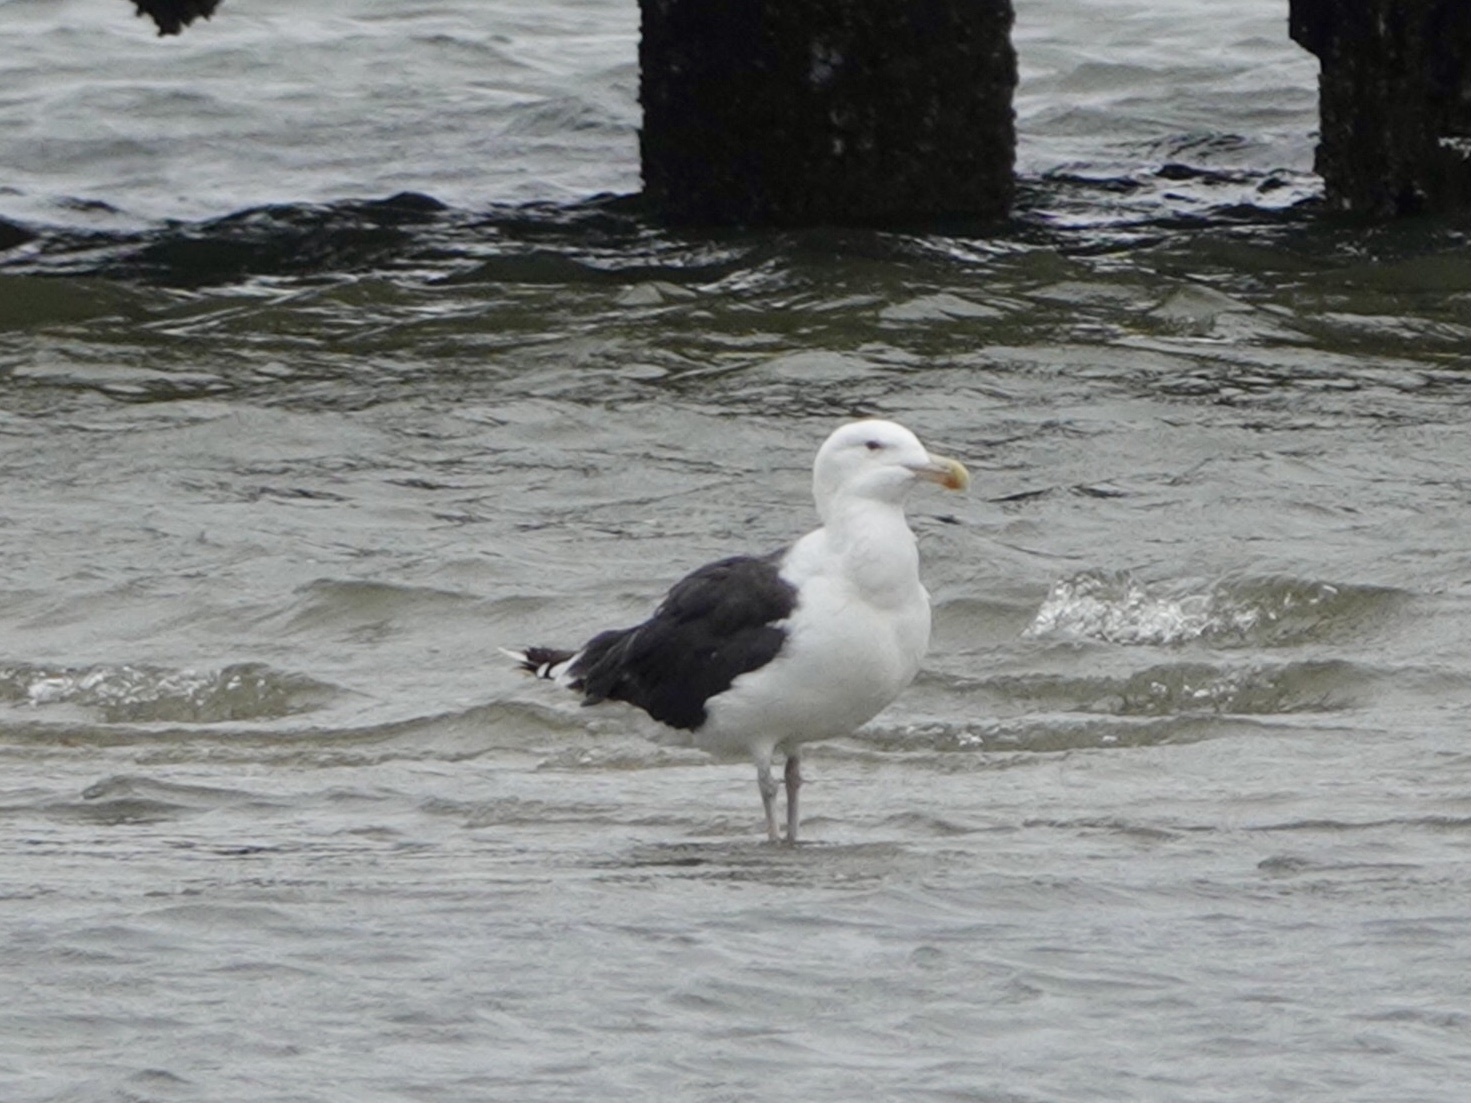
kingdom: Animalia
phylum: Chordata
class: Aves
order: Charadriiformes
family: Laridae
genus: Larus
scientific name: Larus marinus
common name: Great black-backed gull
